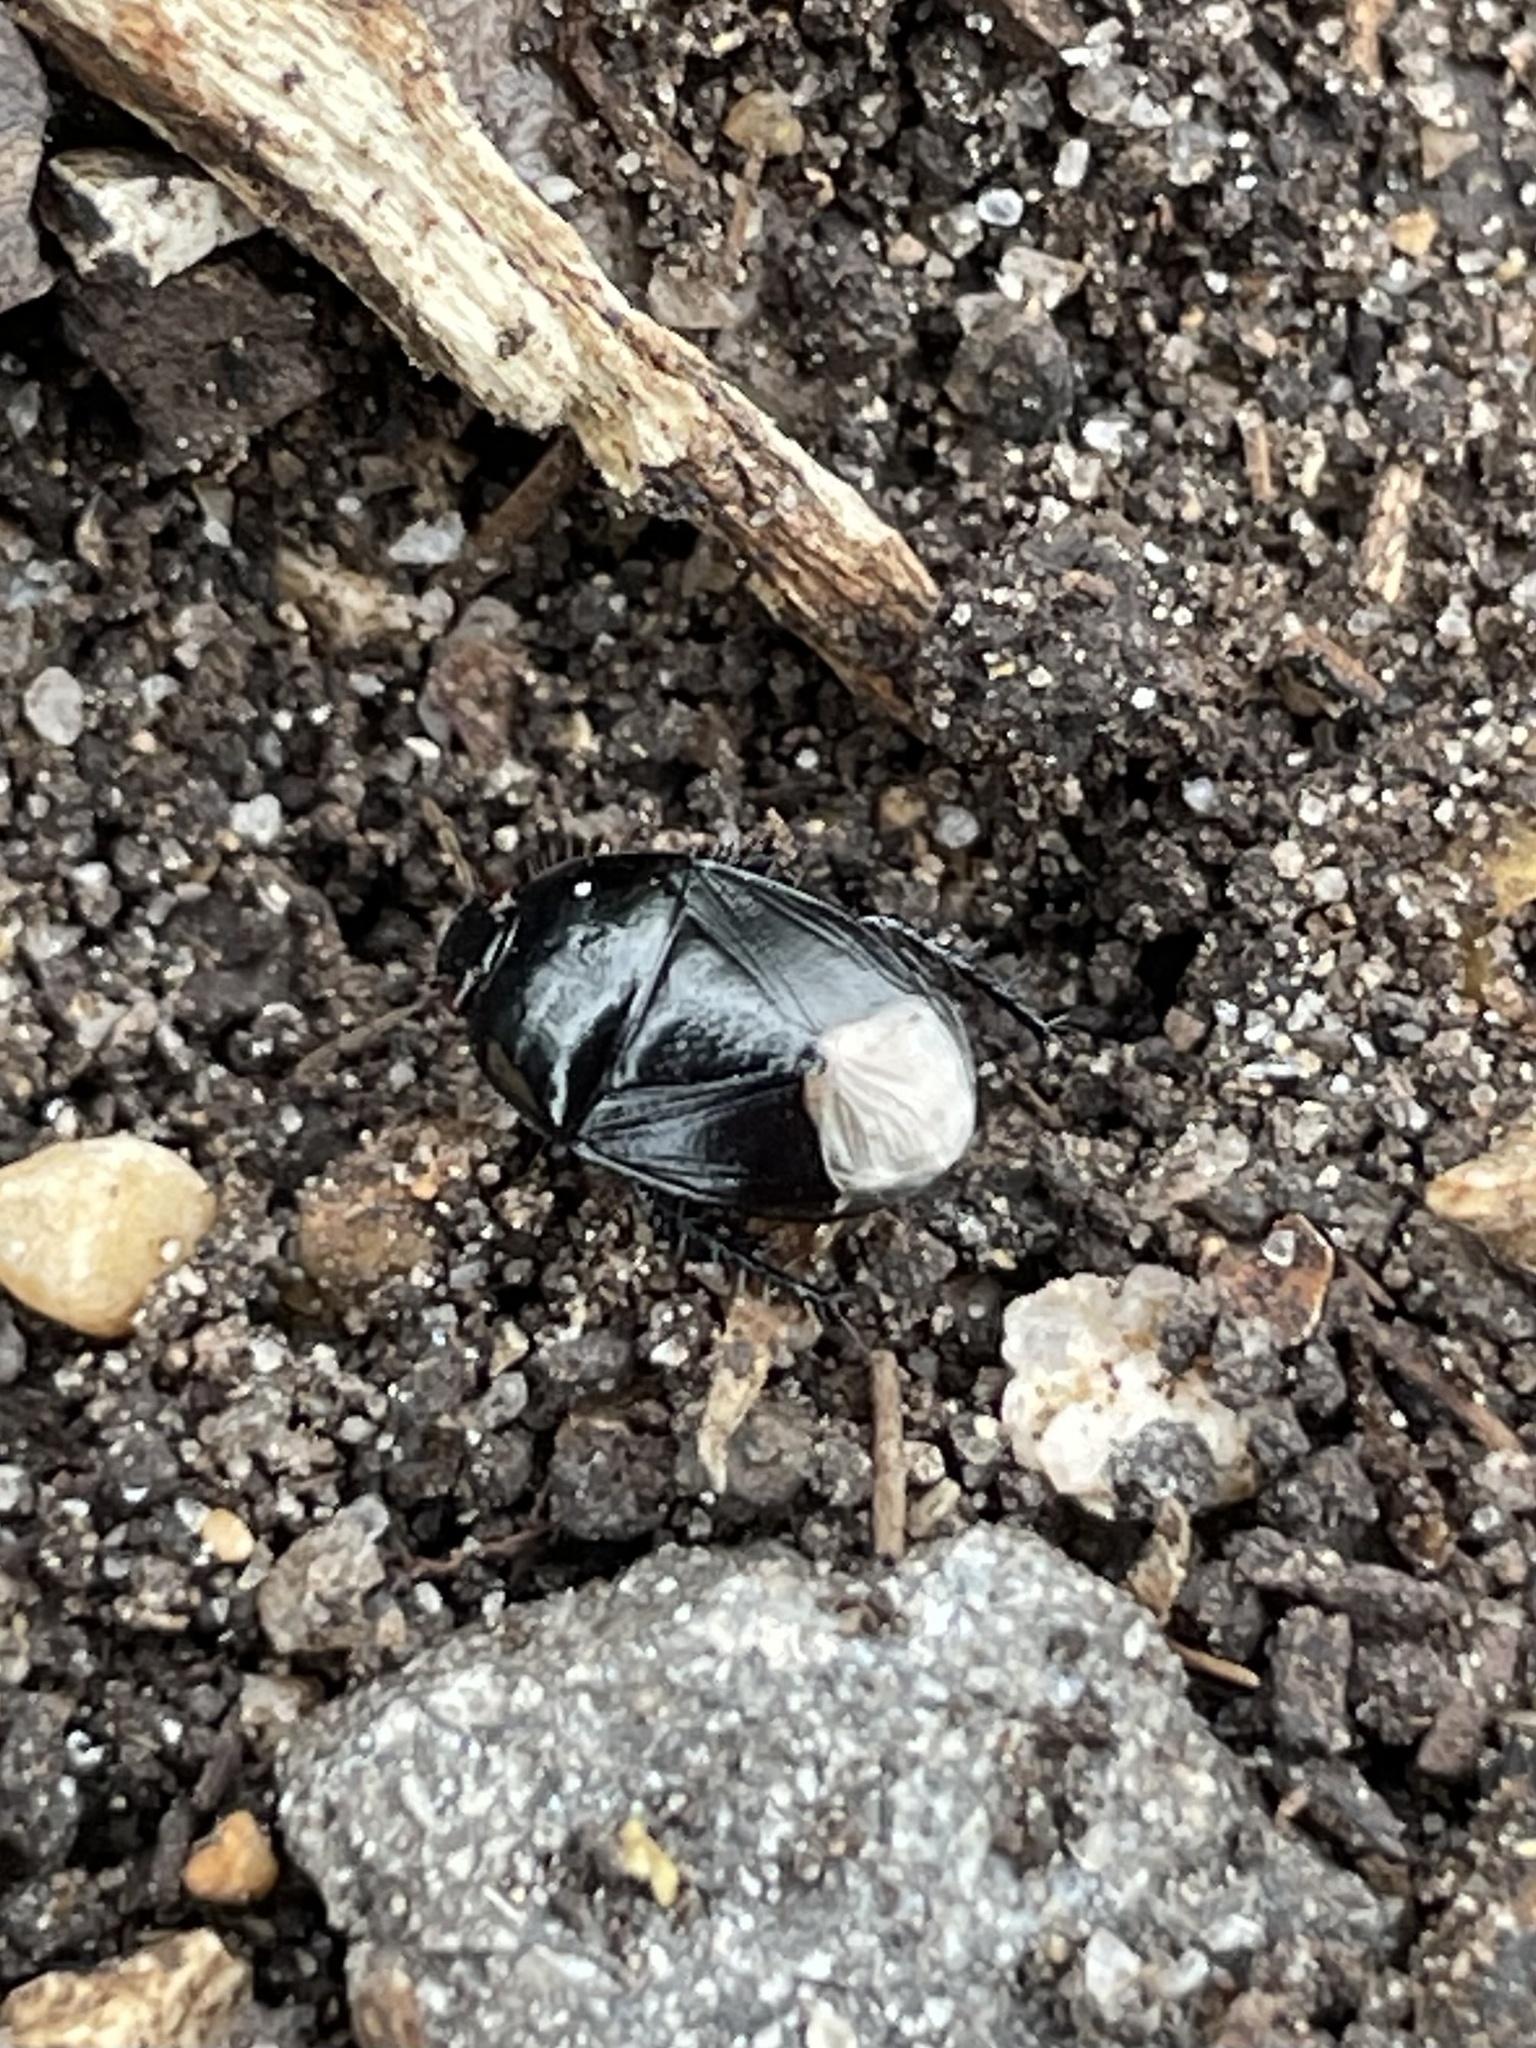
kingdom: Animalia
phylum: Arthropoda
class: Insecta
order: Hemiptera
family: Cydnidae
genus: Pangaeus
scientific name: Pangaeus bilineatus
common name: Burrower bug
